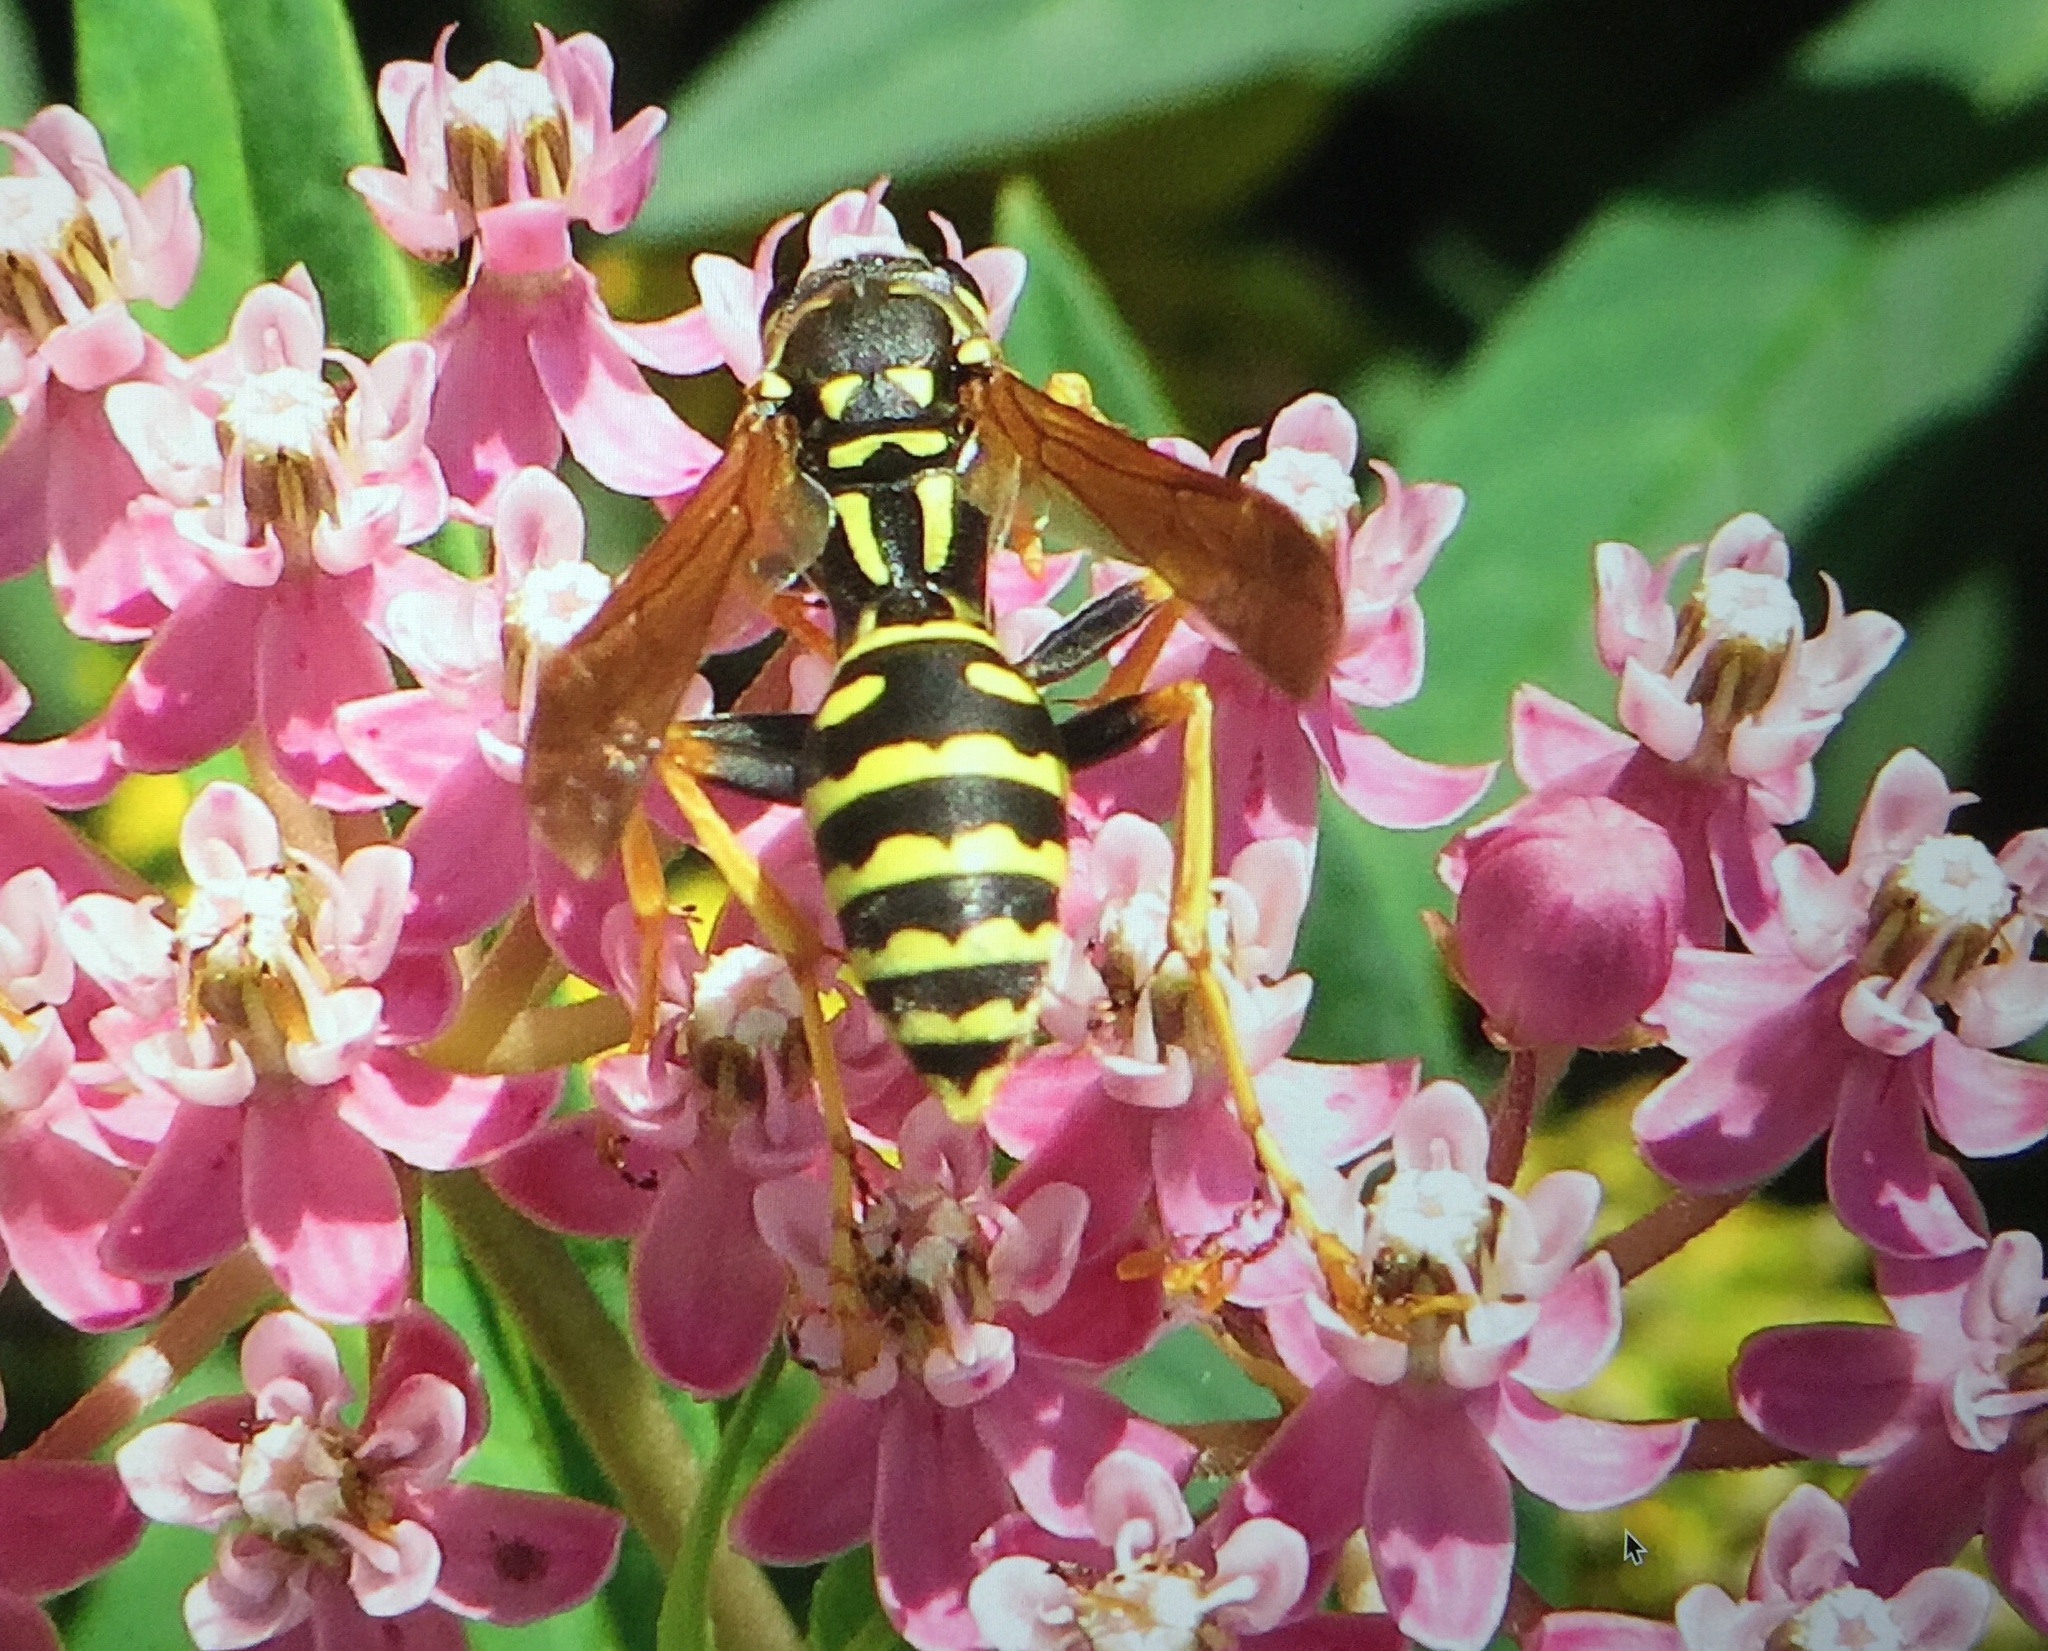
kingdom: Animalia
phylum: Arthropoda
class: Insecta
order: Hymenoptera
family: Eumenidae
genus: Polistes
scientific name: Polistes dominula
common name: Paper wasp
